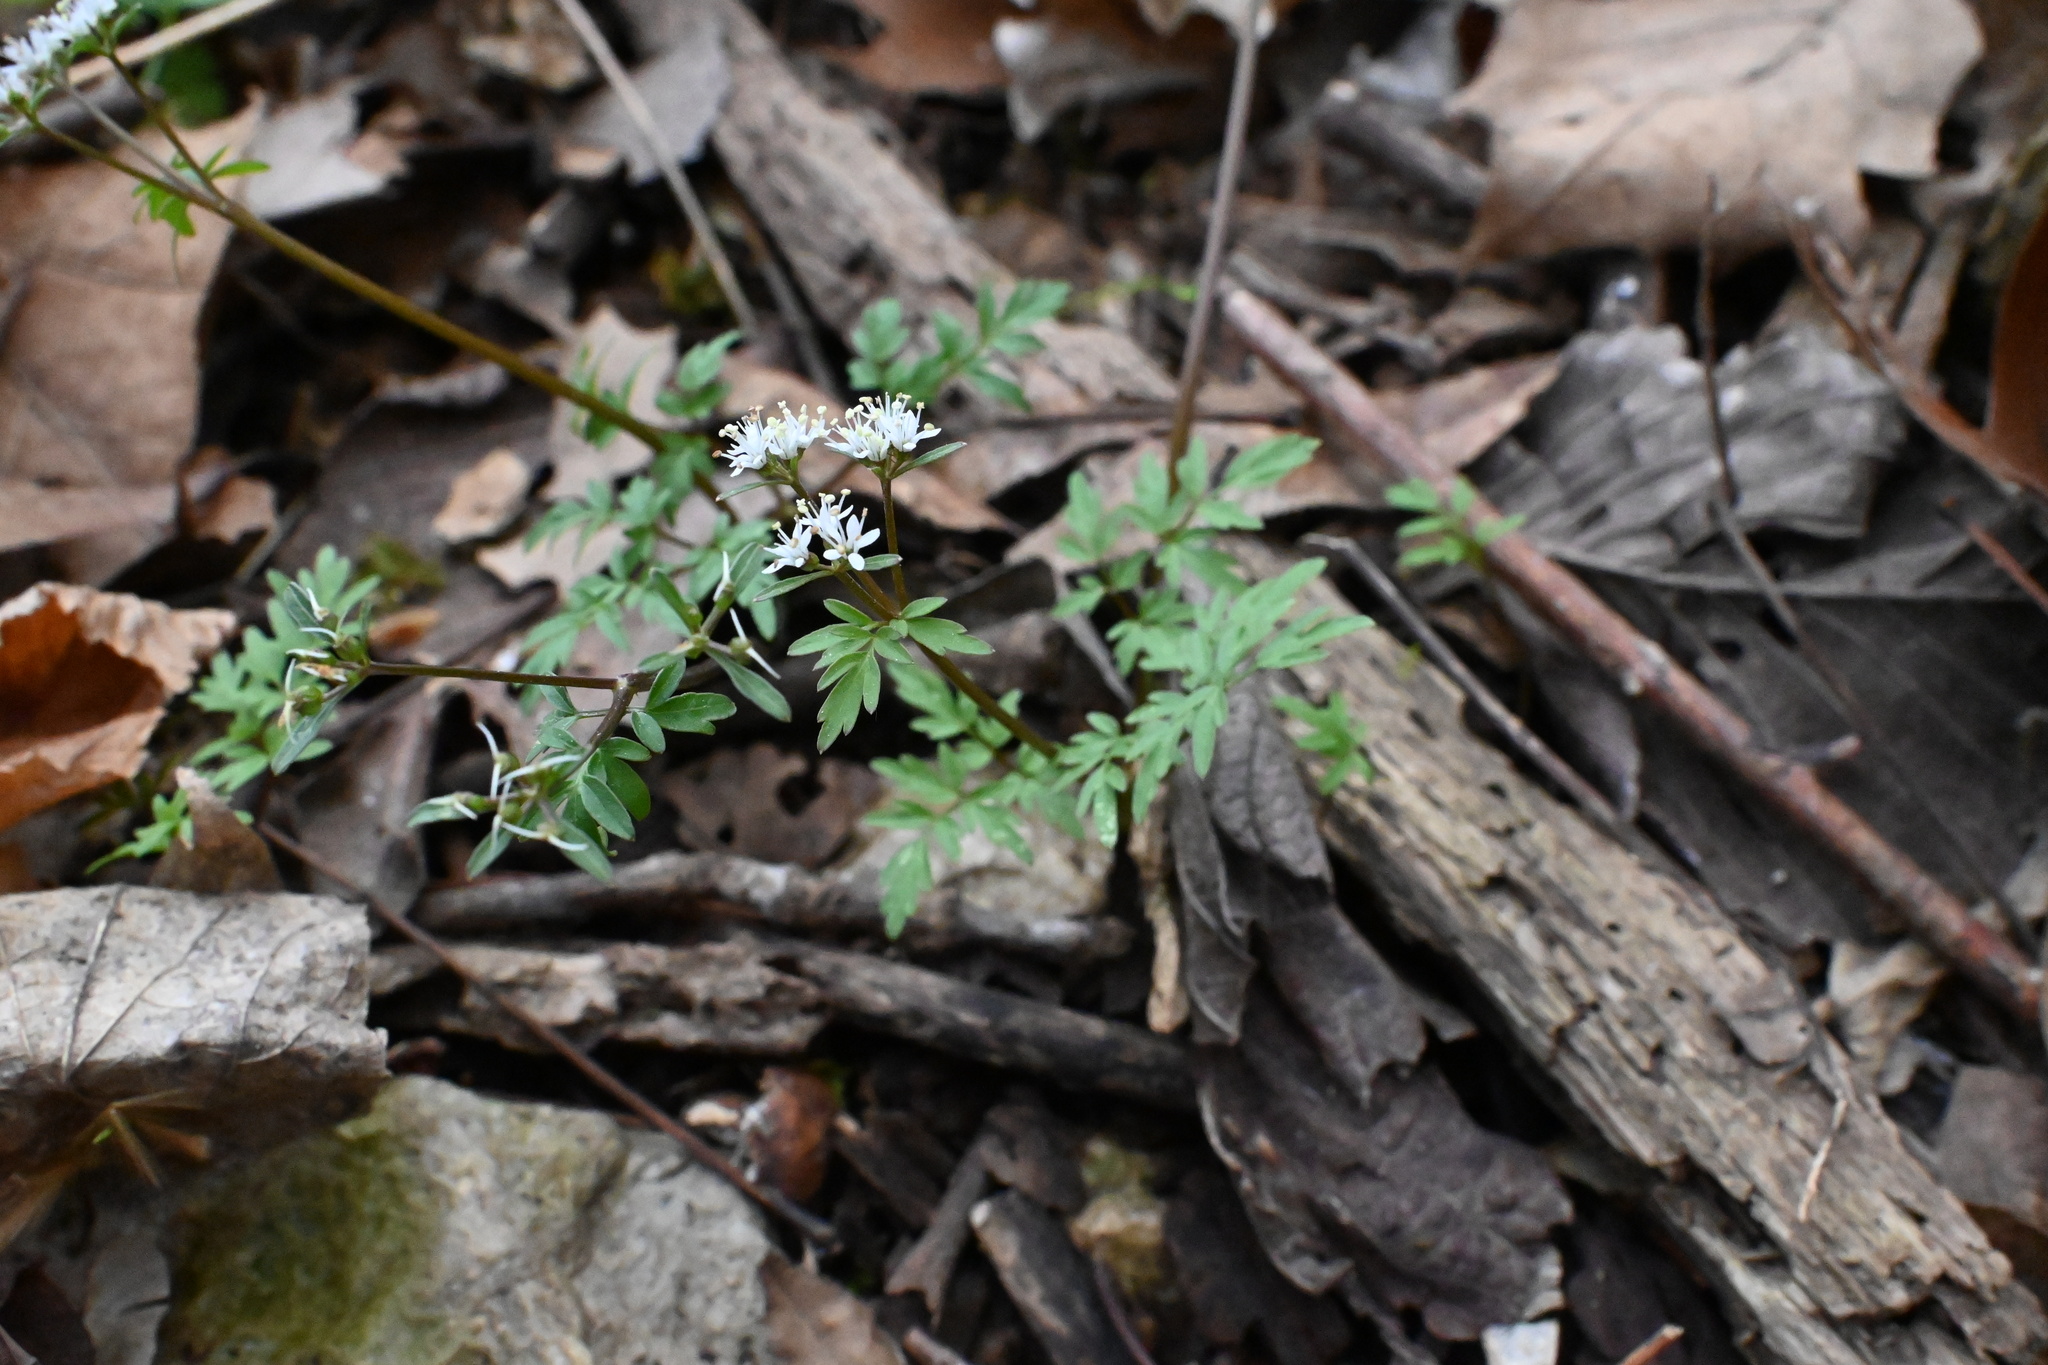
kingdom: Plantae
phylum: Tracheophyta
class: Magnoliopsida
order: Apiales
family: Apiaceae
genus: Erigenia
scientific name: Erigenia bulbosa
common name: Pepper-and-salt
